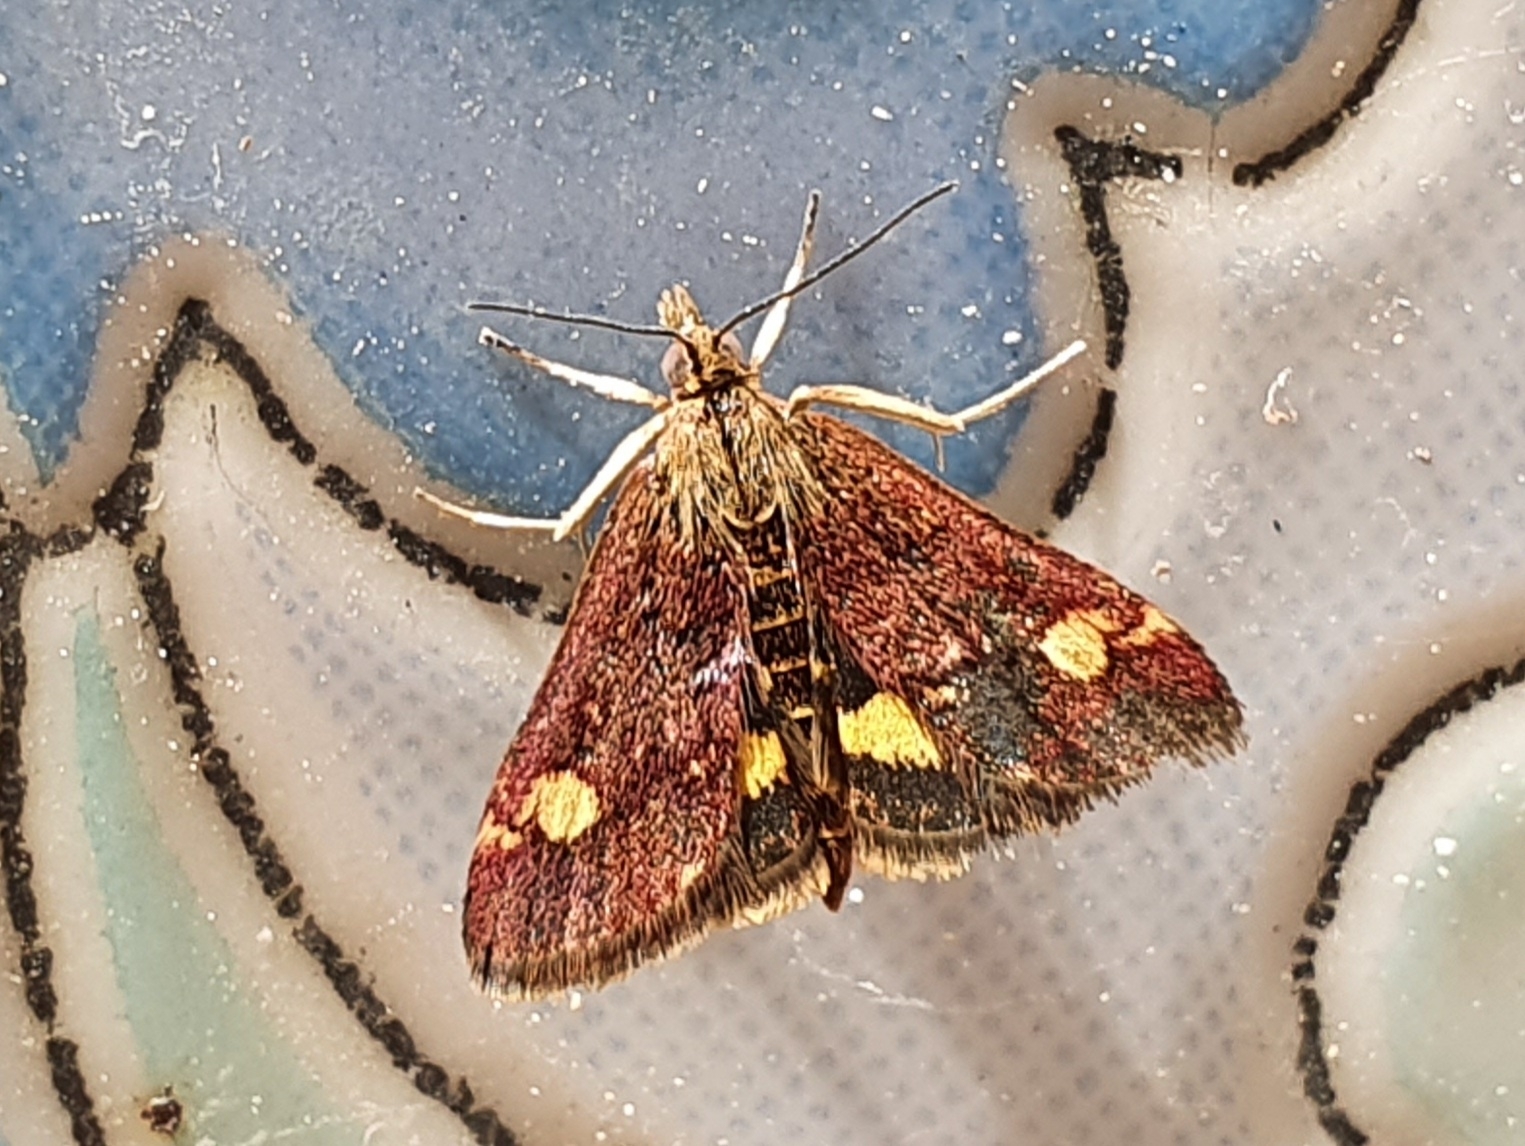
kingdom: Animalia
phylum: Arthropoda
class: Insecta
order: Lepidoptera
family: Crambidae
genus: Pyrausta
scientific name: Pyrausta aurata
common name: Small purple & gold
